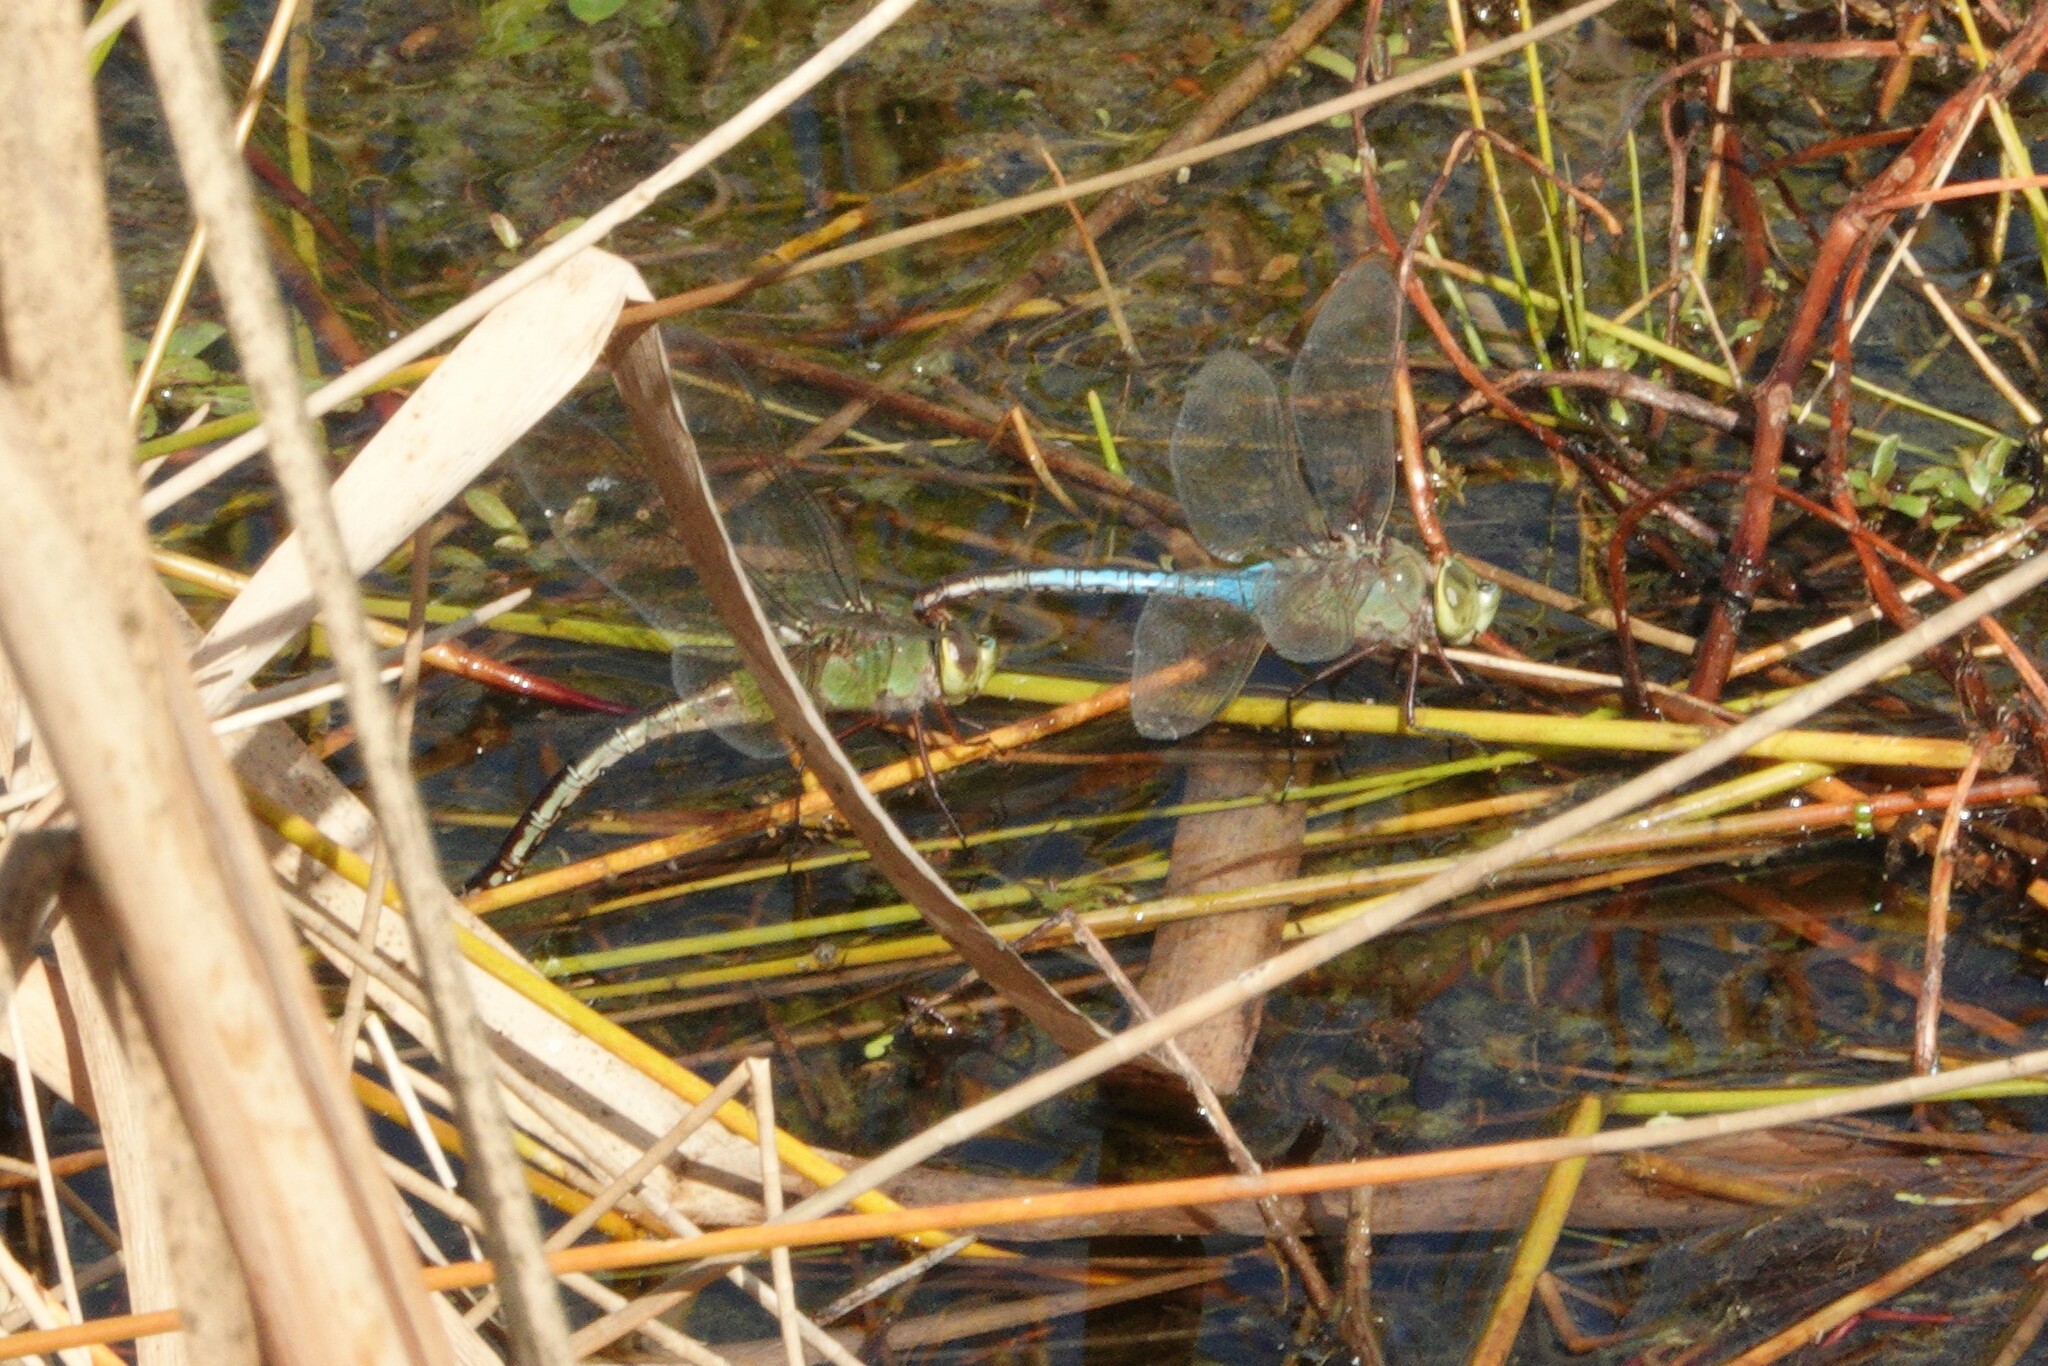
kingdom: Animalia
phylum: Arthropoda
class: Insecta
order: Odonata
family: Aeshnidae
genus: Anax
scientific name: Anax junius
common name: Common green darner
